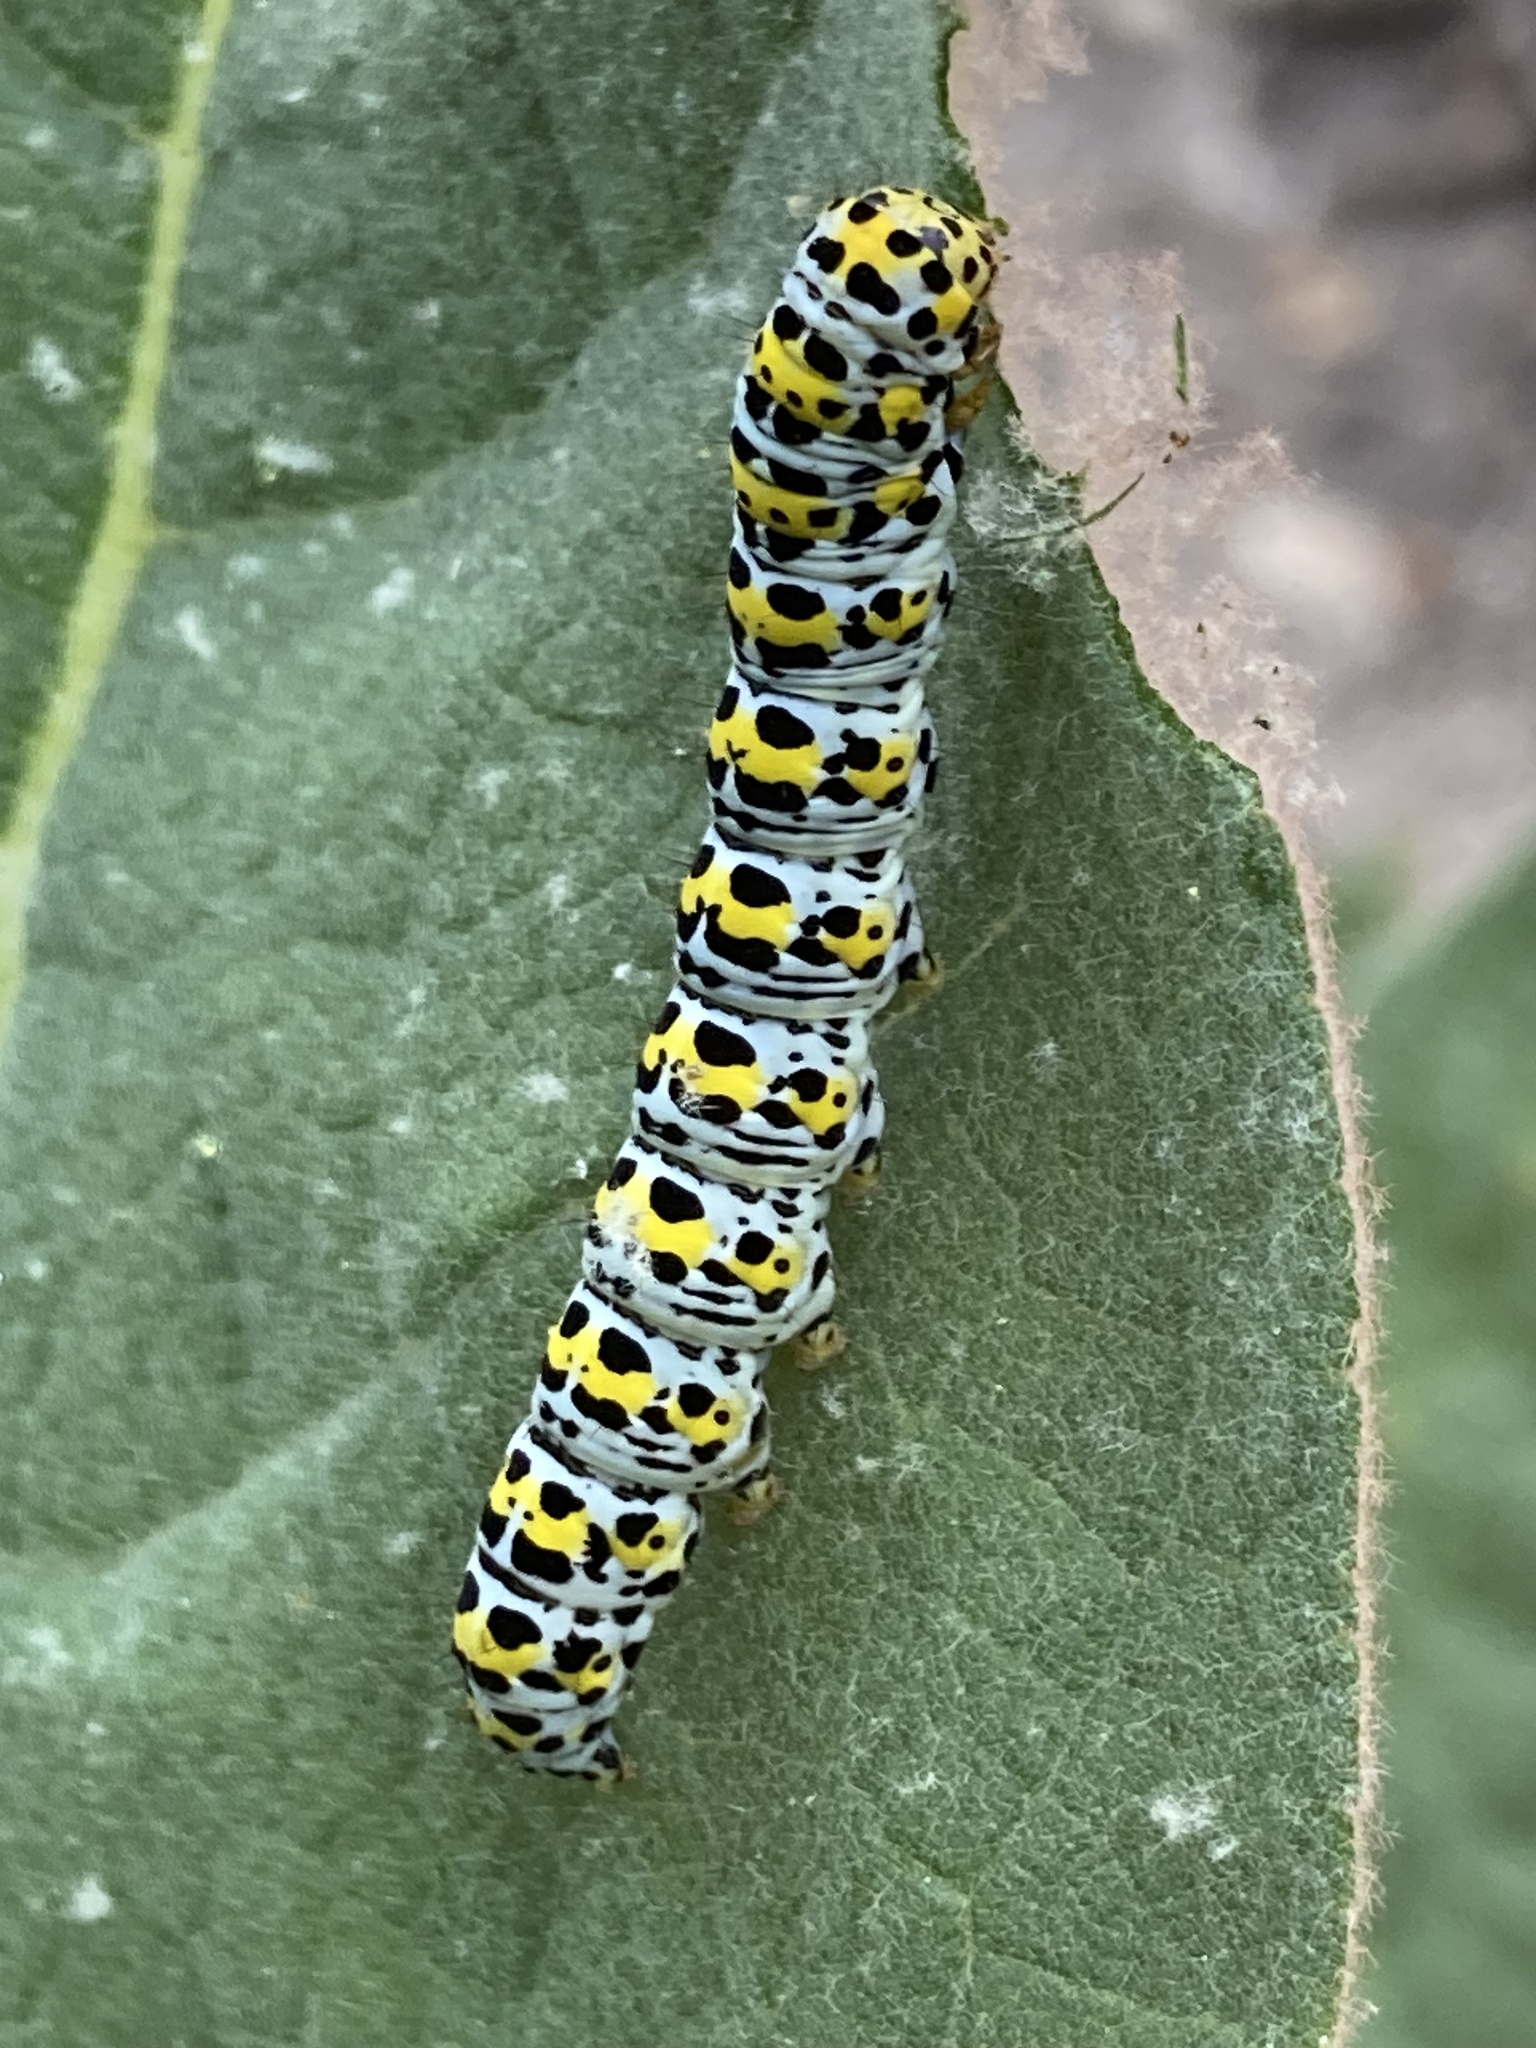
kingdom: Animalia
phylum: Arthropoda
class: Insecta
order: Lepidoptera
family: Noctuidae
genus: Cucullia
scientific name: Cucullia verbasci
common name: Mullein
